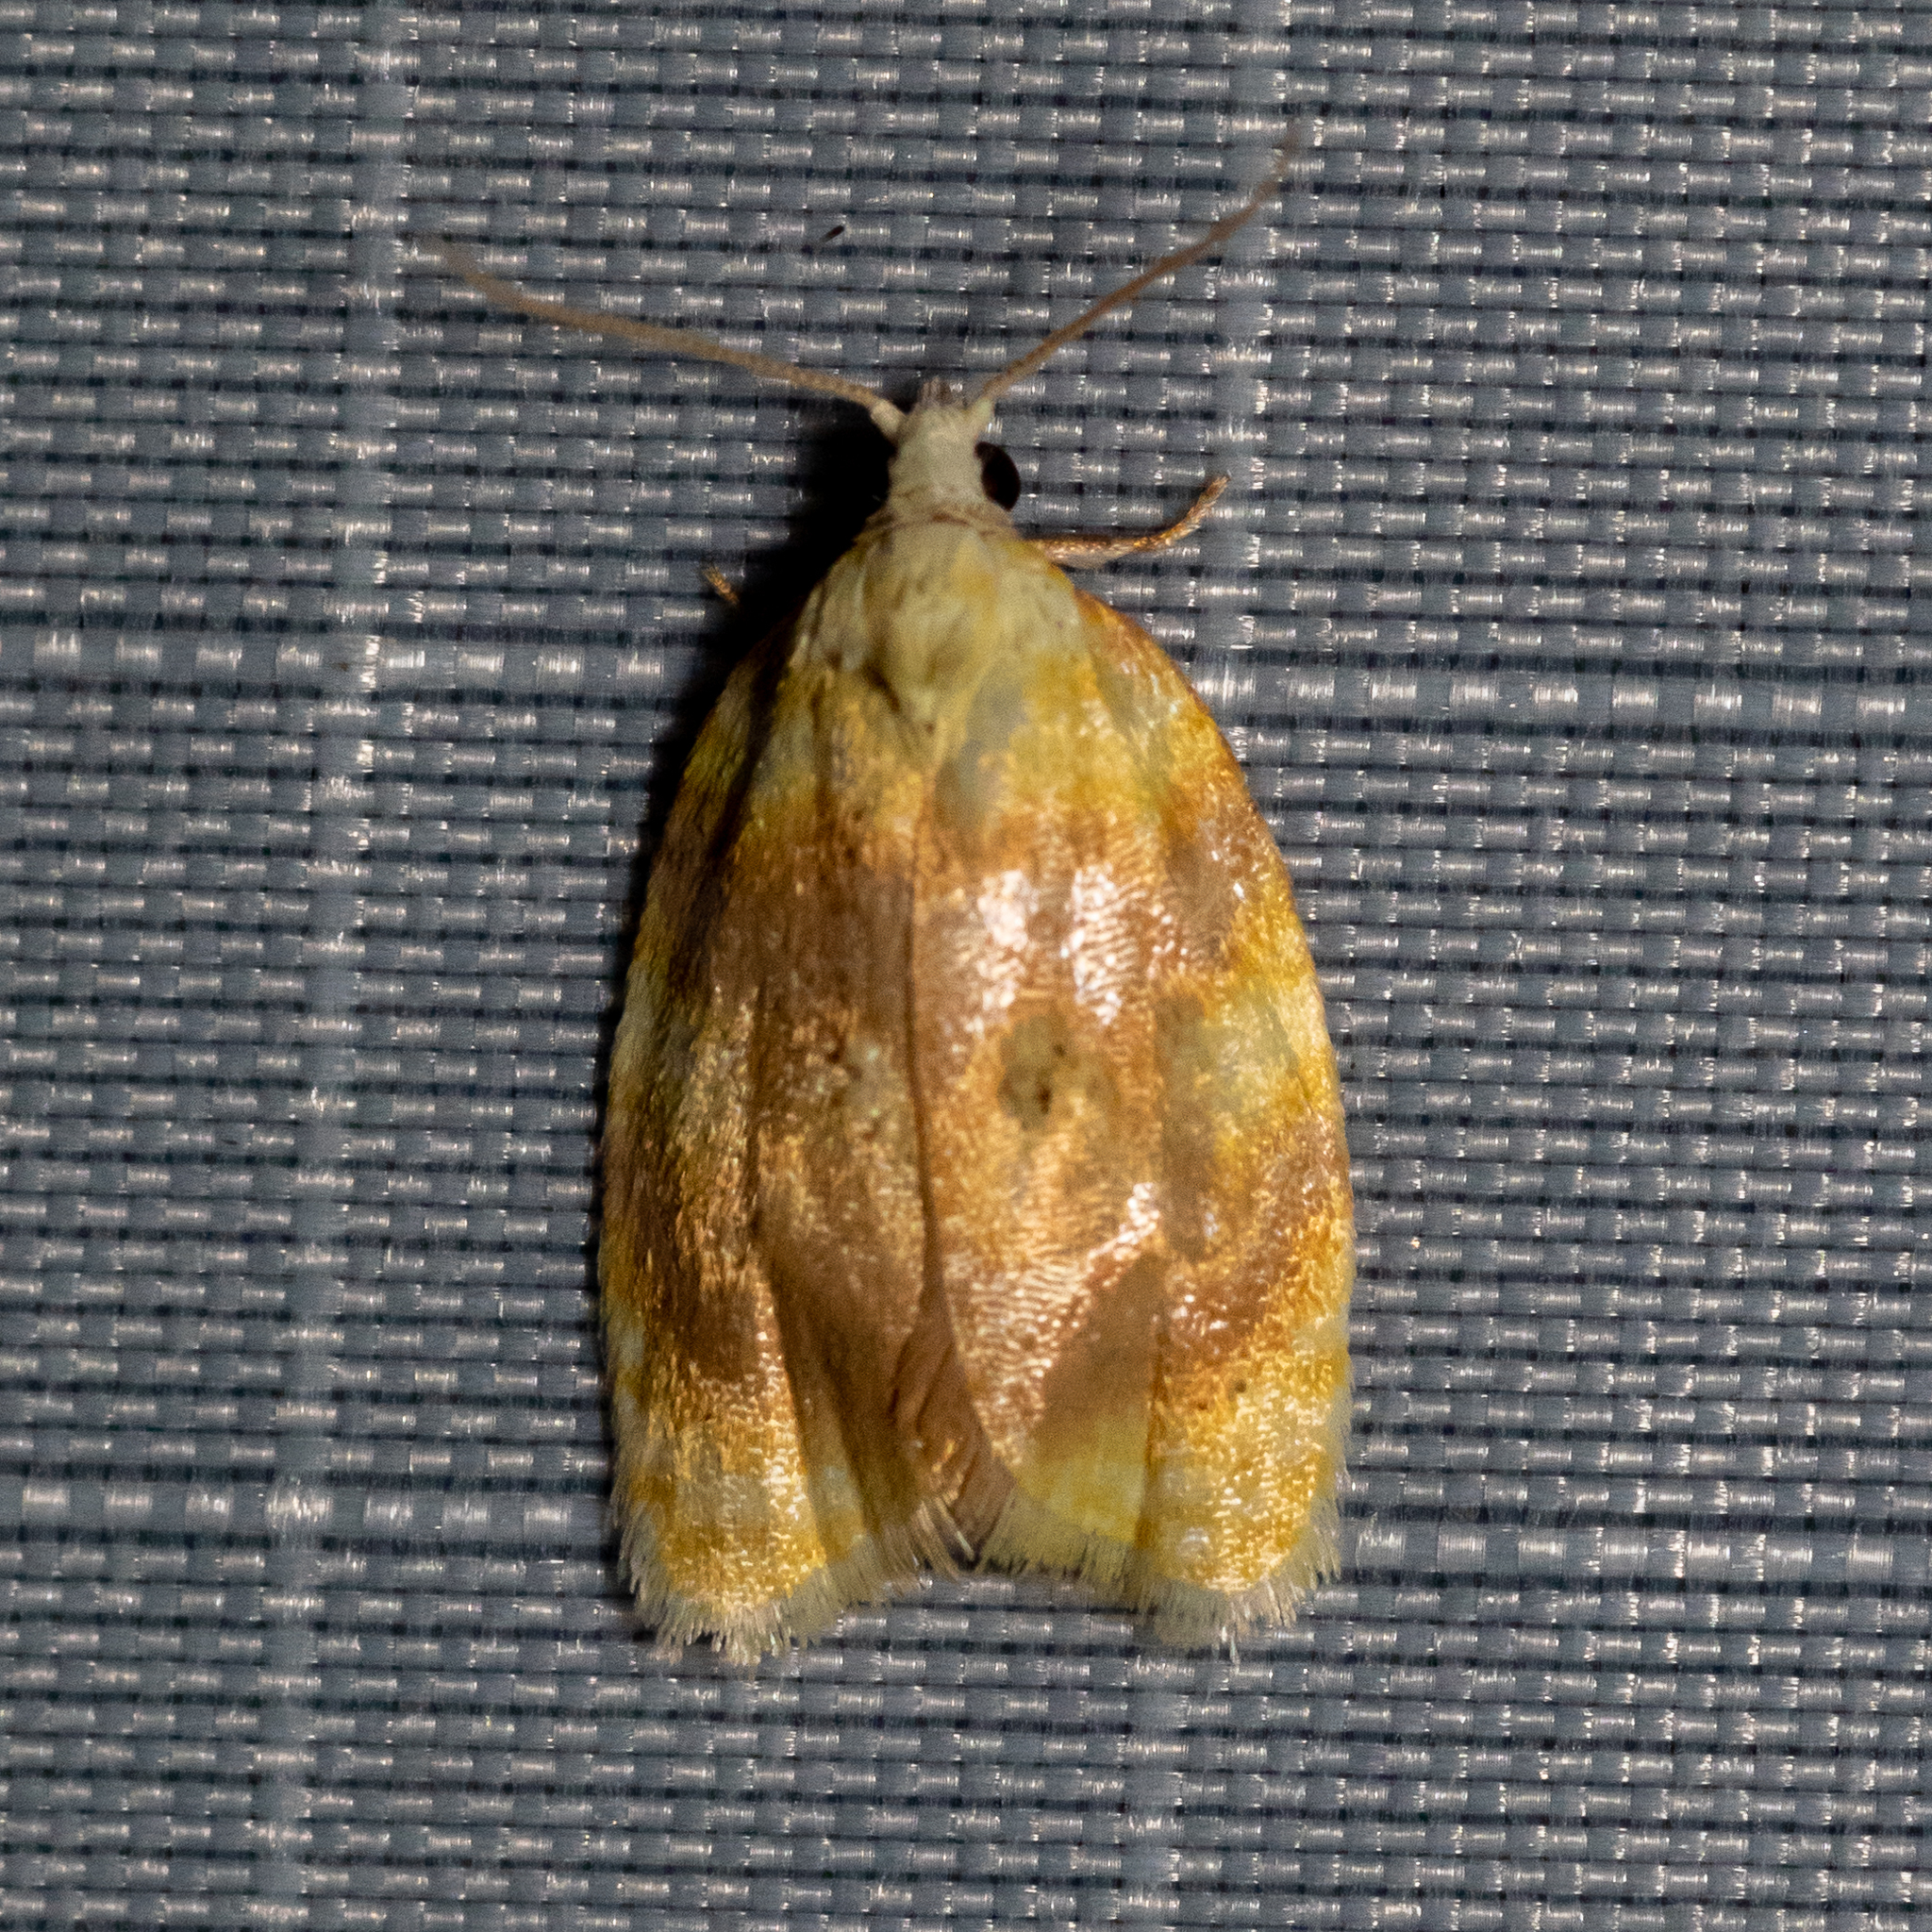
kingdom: Animalia
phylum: Arthropoda
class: Insecta
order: Lepidoptera
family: Tortricidae
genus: Acleris
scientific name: Acleris semipurpurana
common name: Oak leaftier moth
